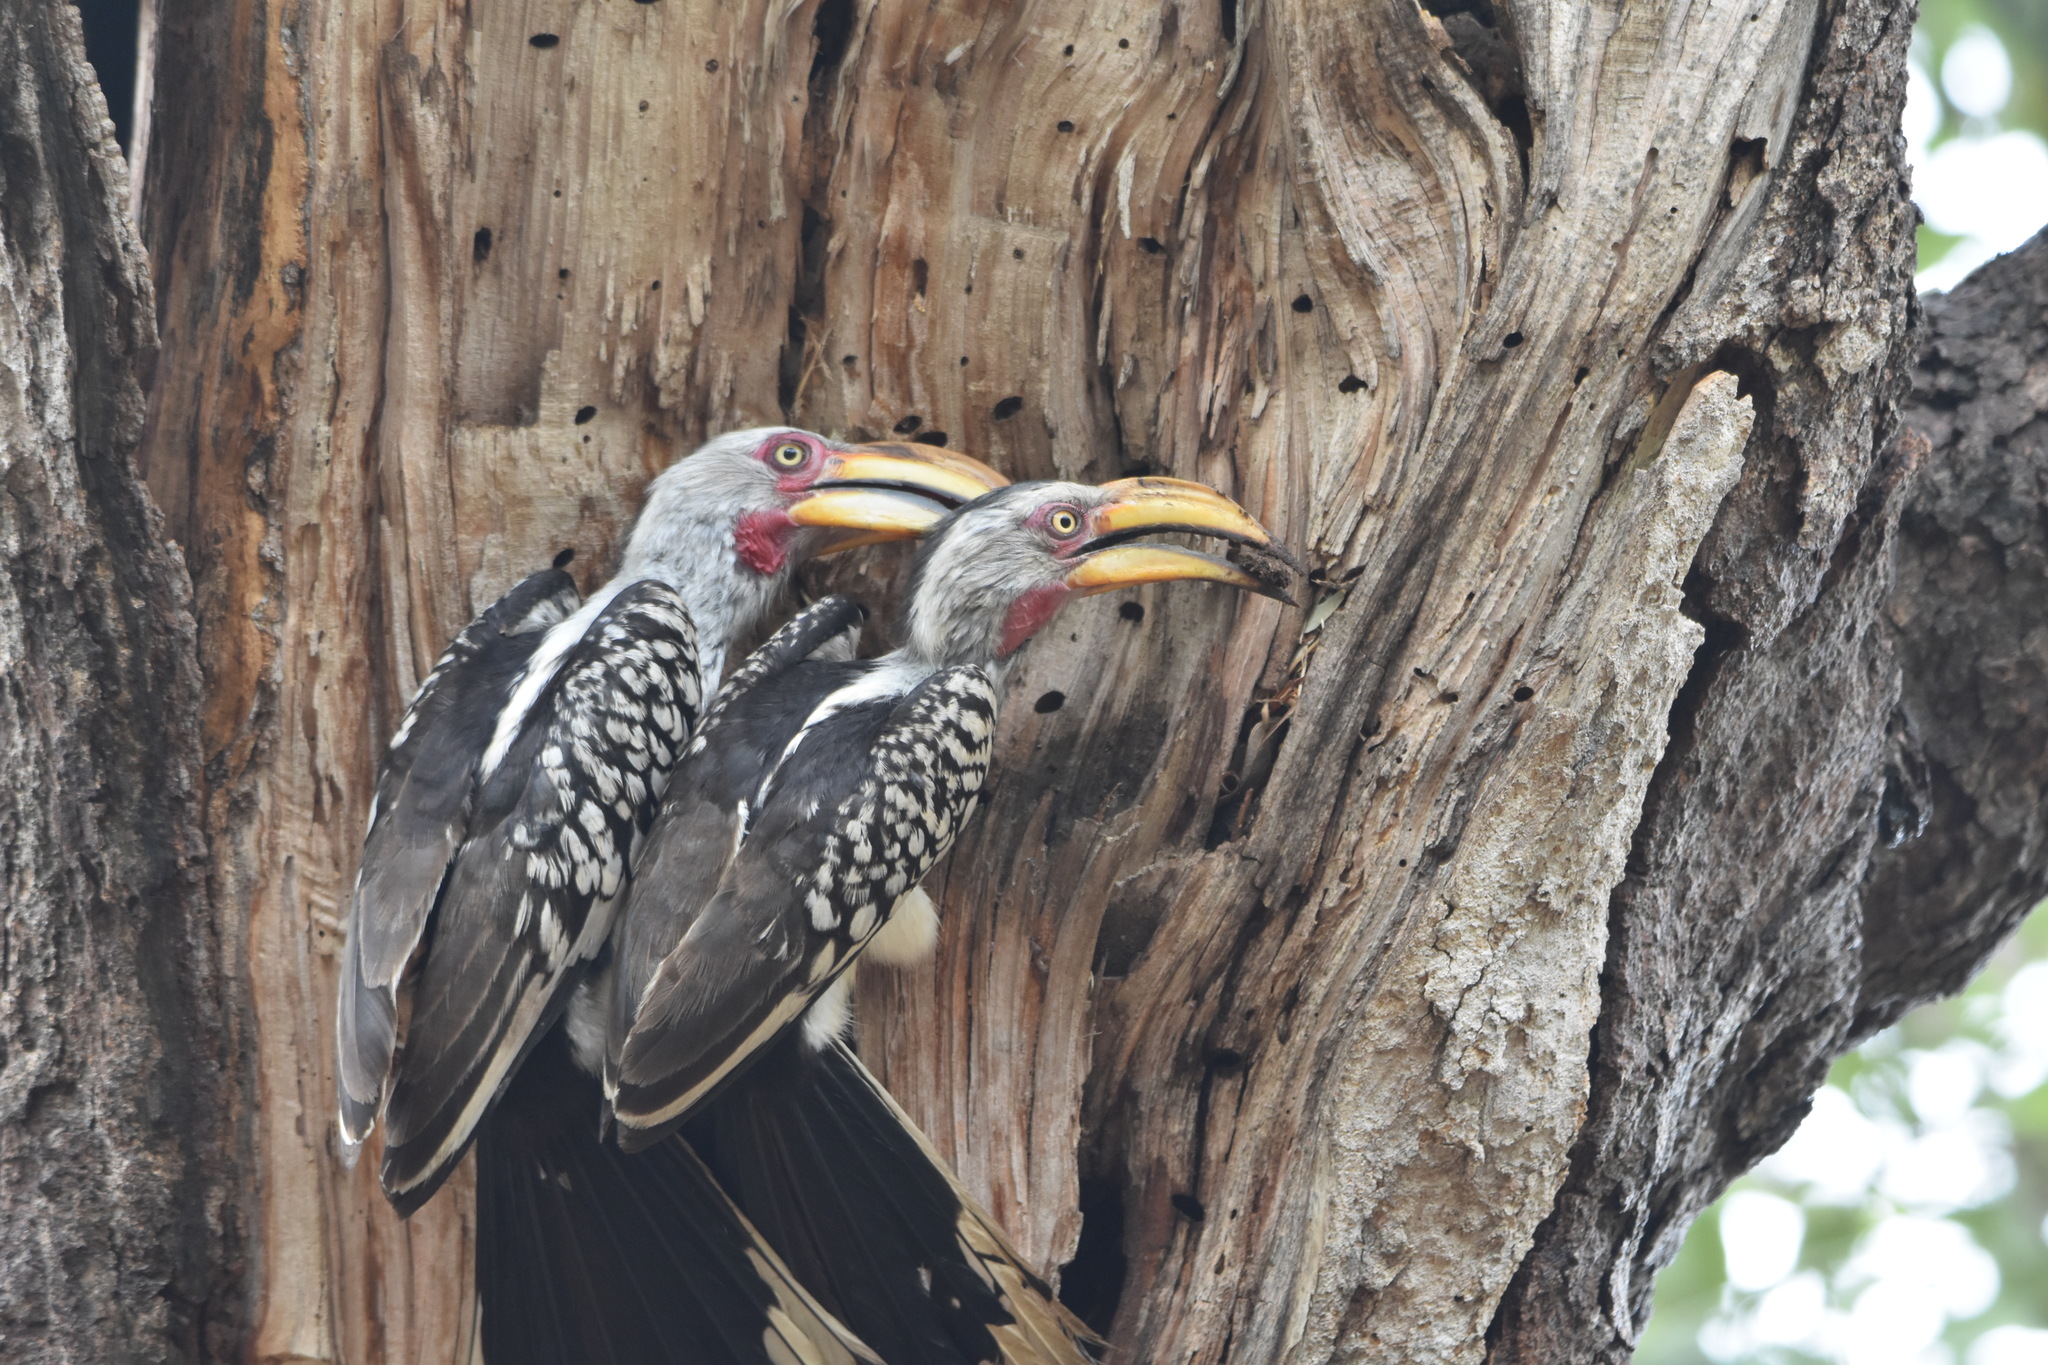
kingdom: Animalia
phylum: Chordata
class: Aves
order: Bucerotiformes
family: Bucerotidae
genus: Tockus
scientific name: Tockus leucomelas
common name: Southern yellow-billed hornbill
